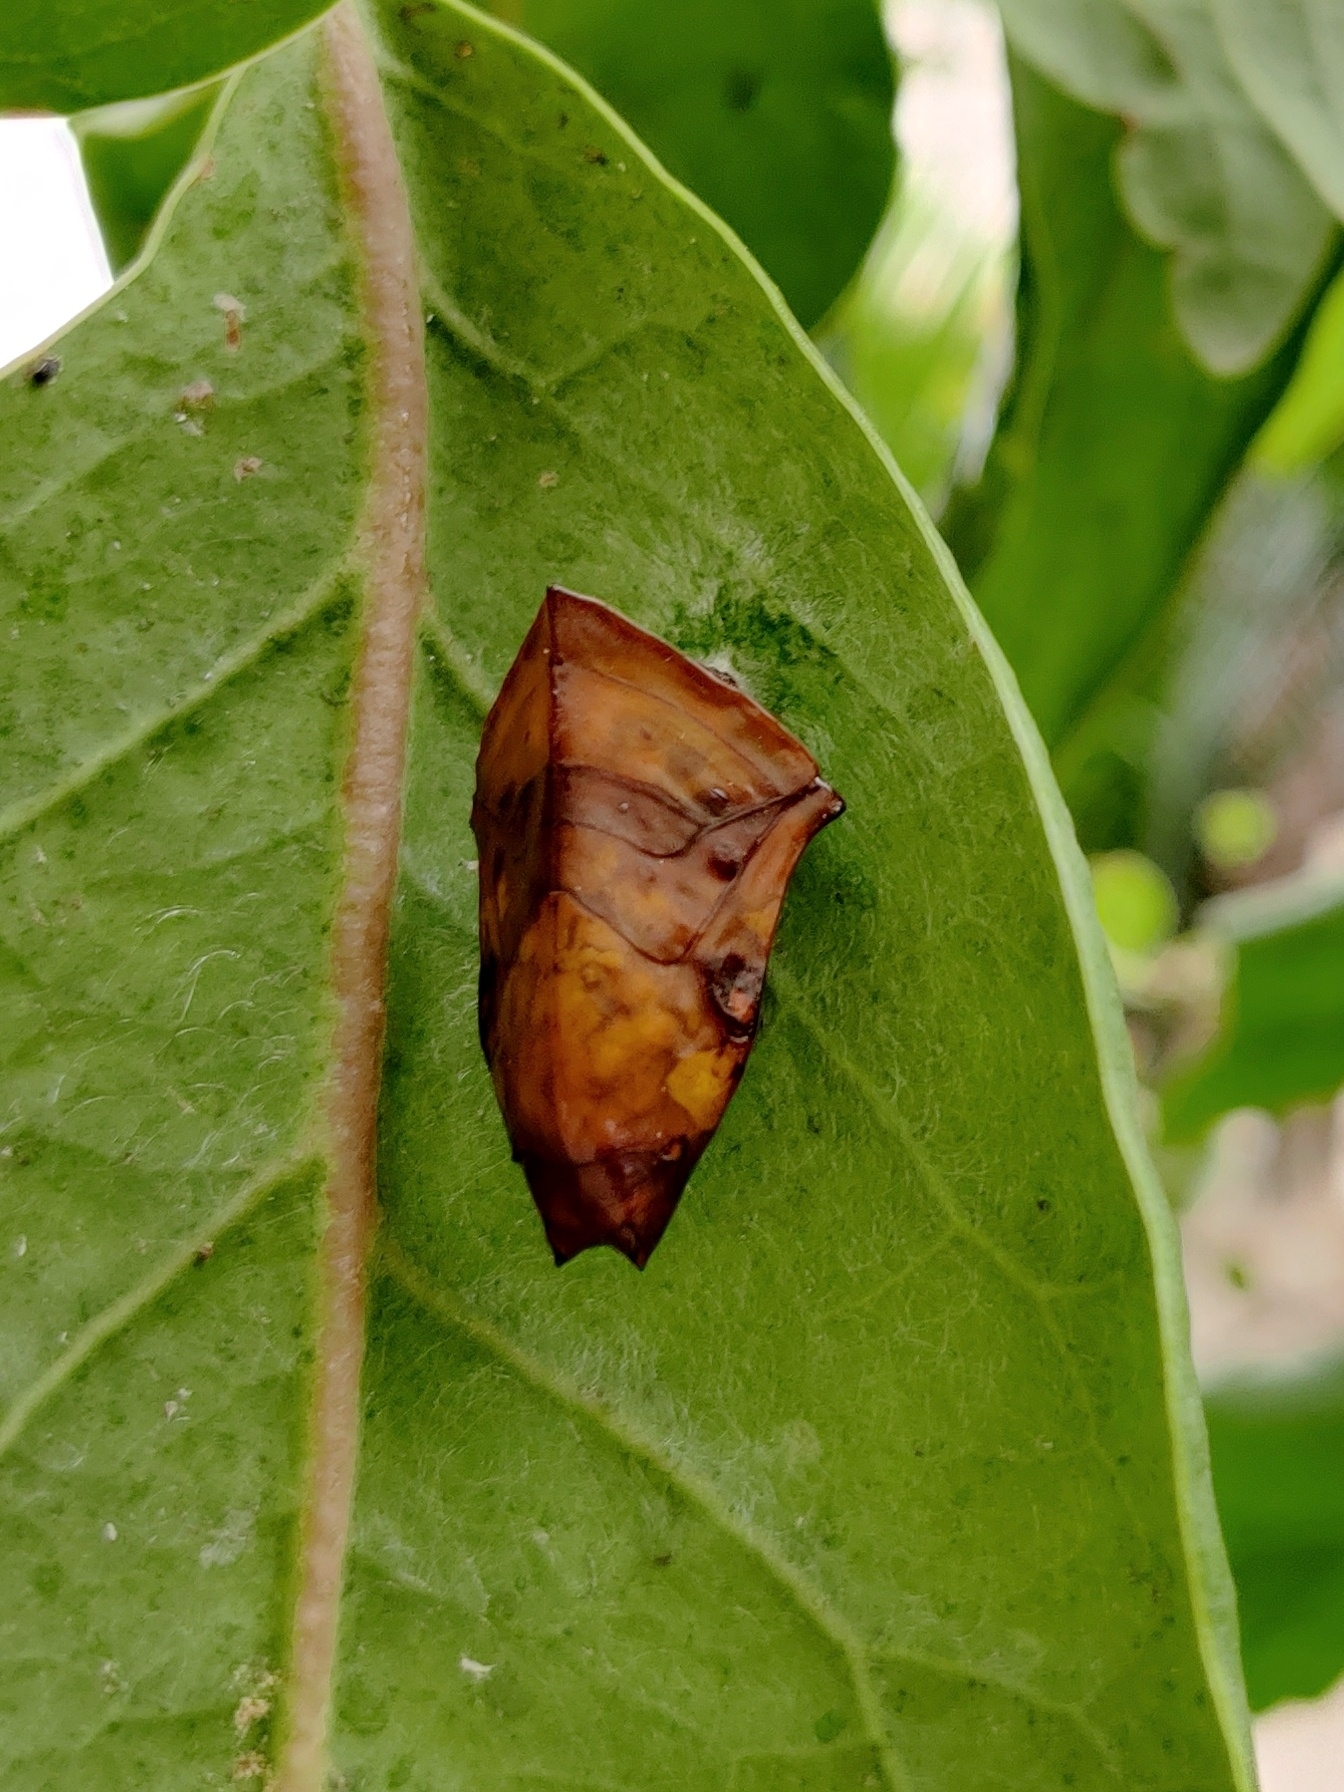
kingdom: Animalia
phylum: Arthropoda
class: Insecta
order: Lepidoptera
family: Nymphalidae
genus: Euthalia
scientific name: Euthalia lubentina
